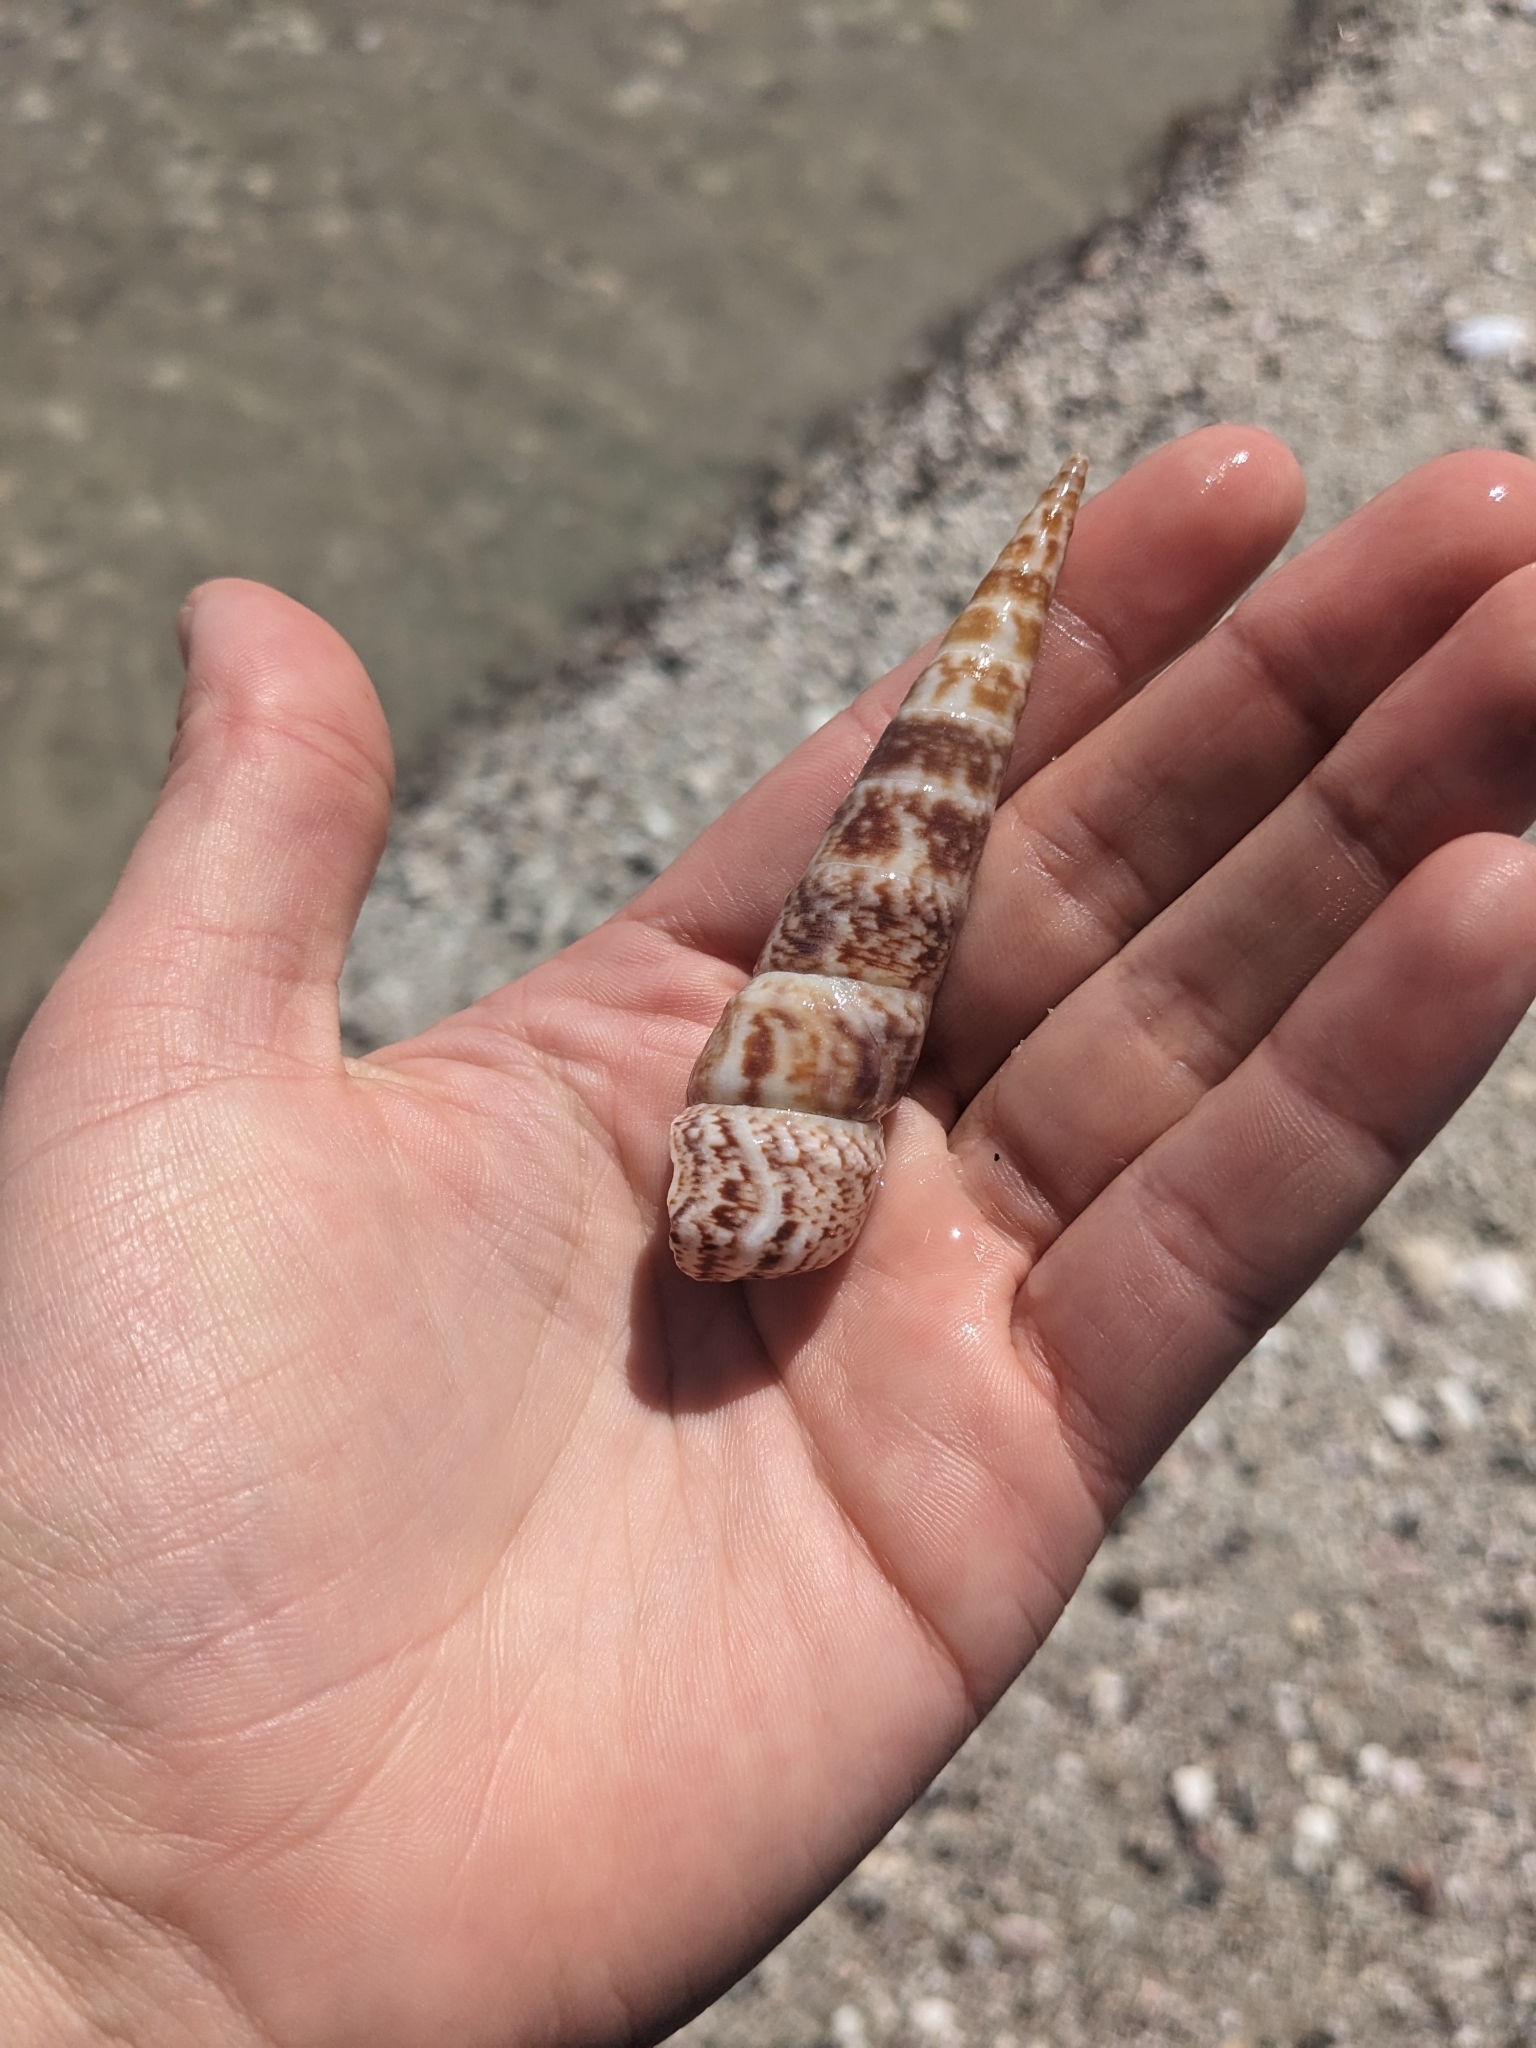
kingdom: Animalia
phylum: Mollusca
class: Gastropoda
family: Turritellidae
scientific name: Turritellidae
